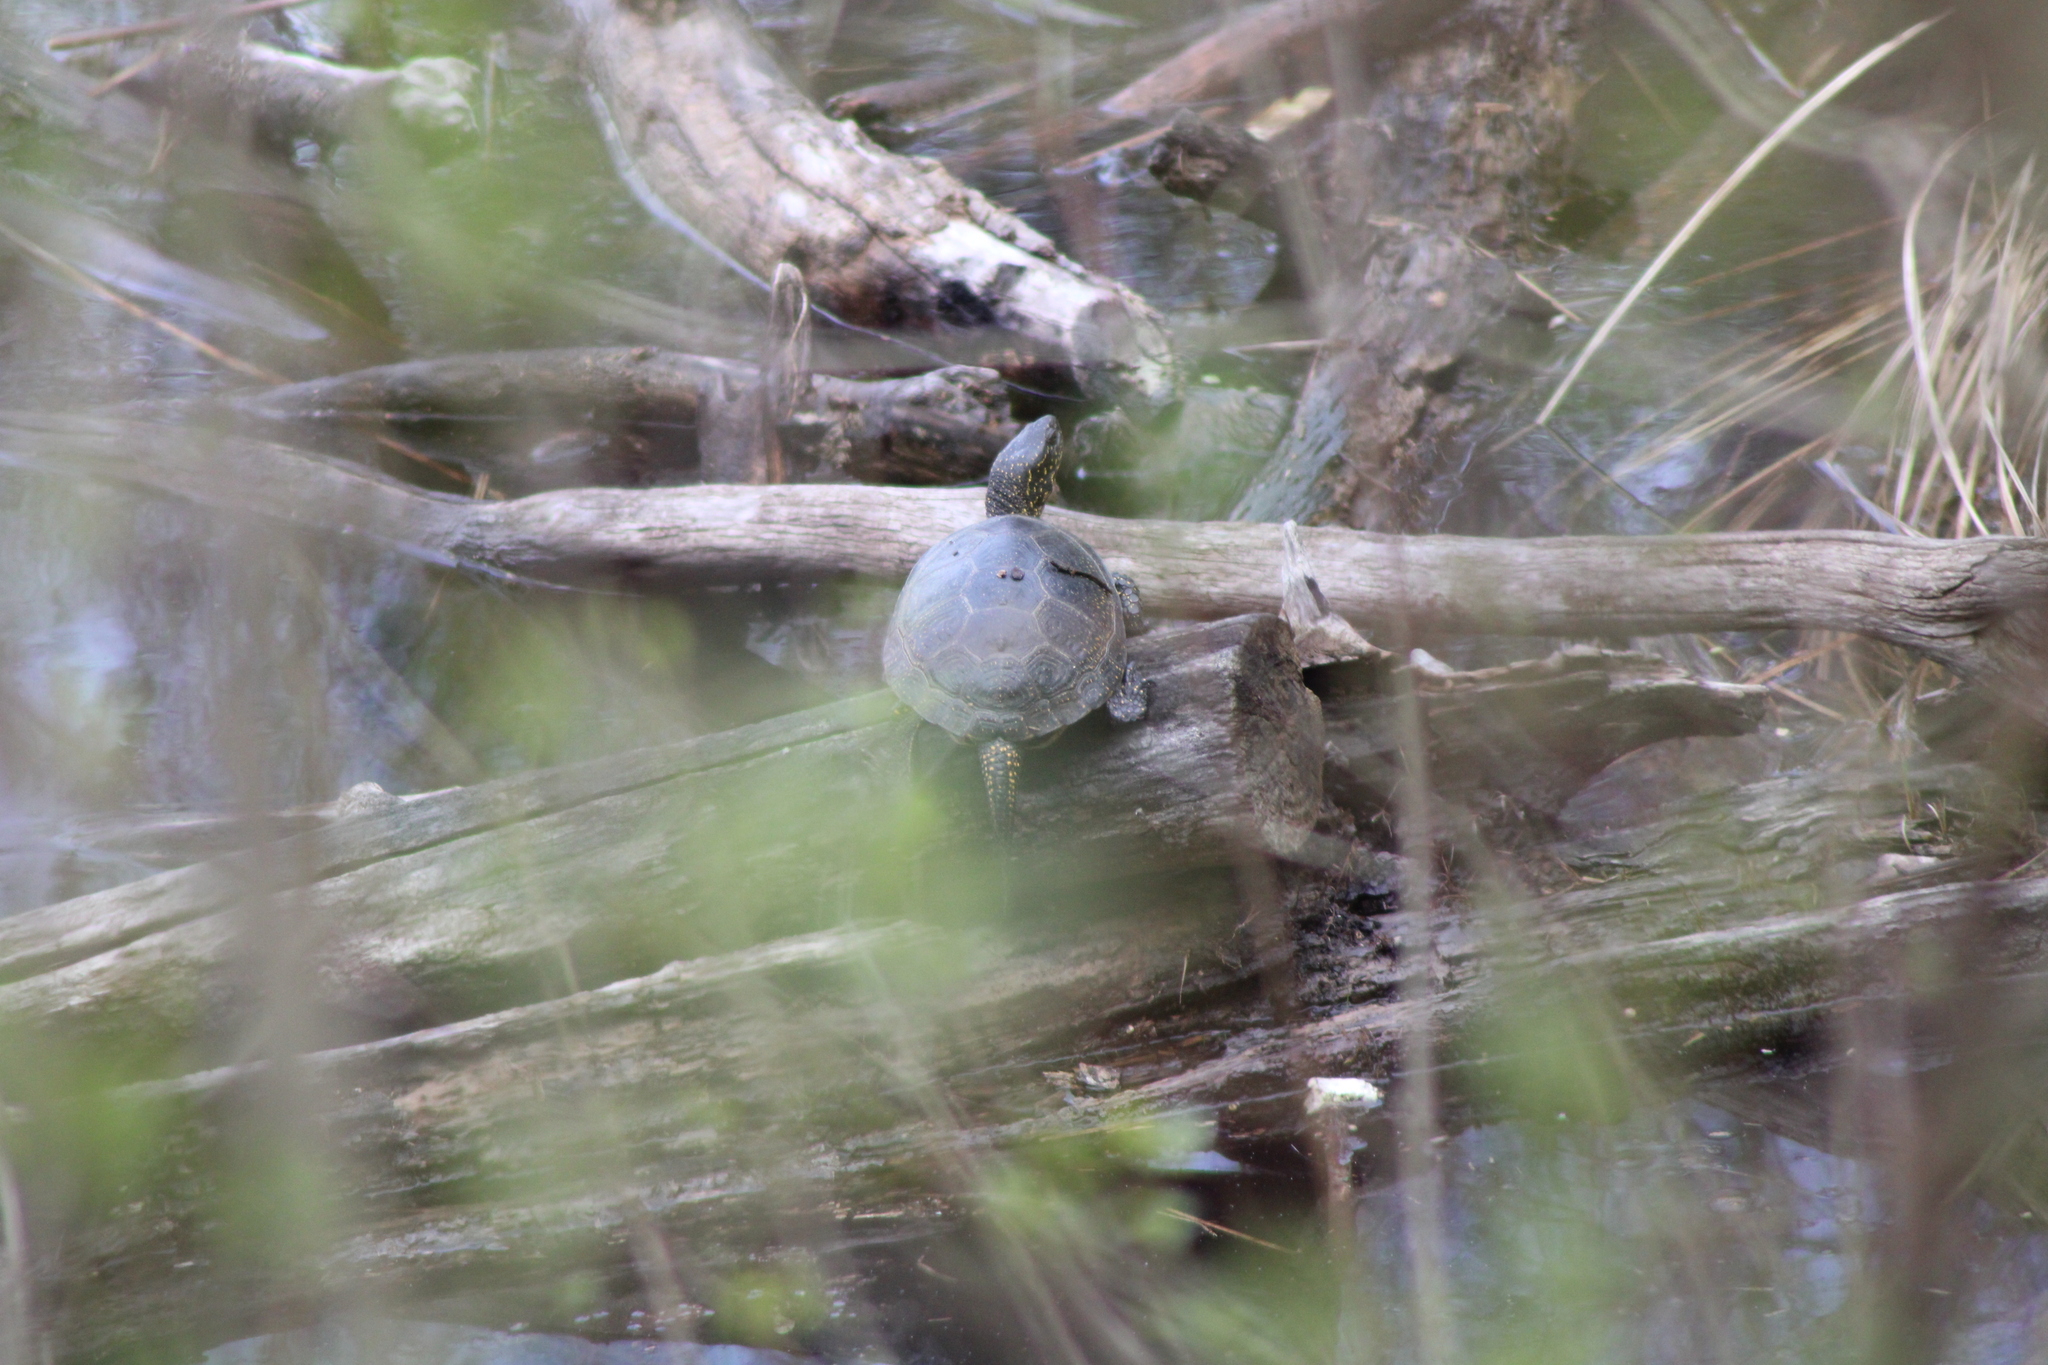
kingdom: Animalia
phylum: Chordata
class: Testudines
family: Emydidae
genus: Emys
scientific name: Emys orbicularis
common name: European pond turtle
